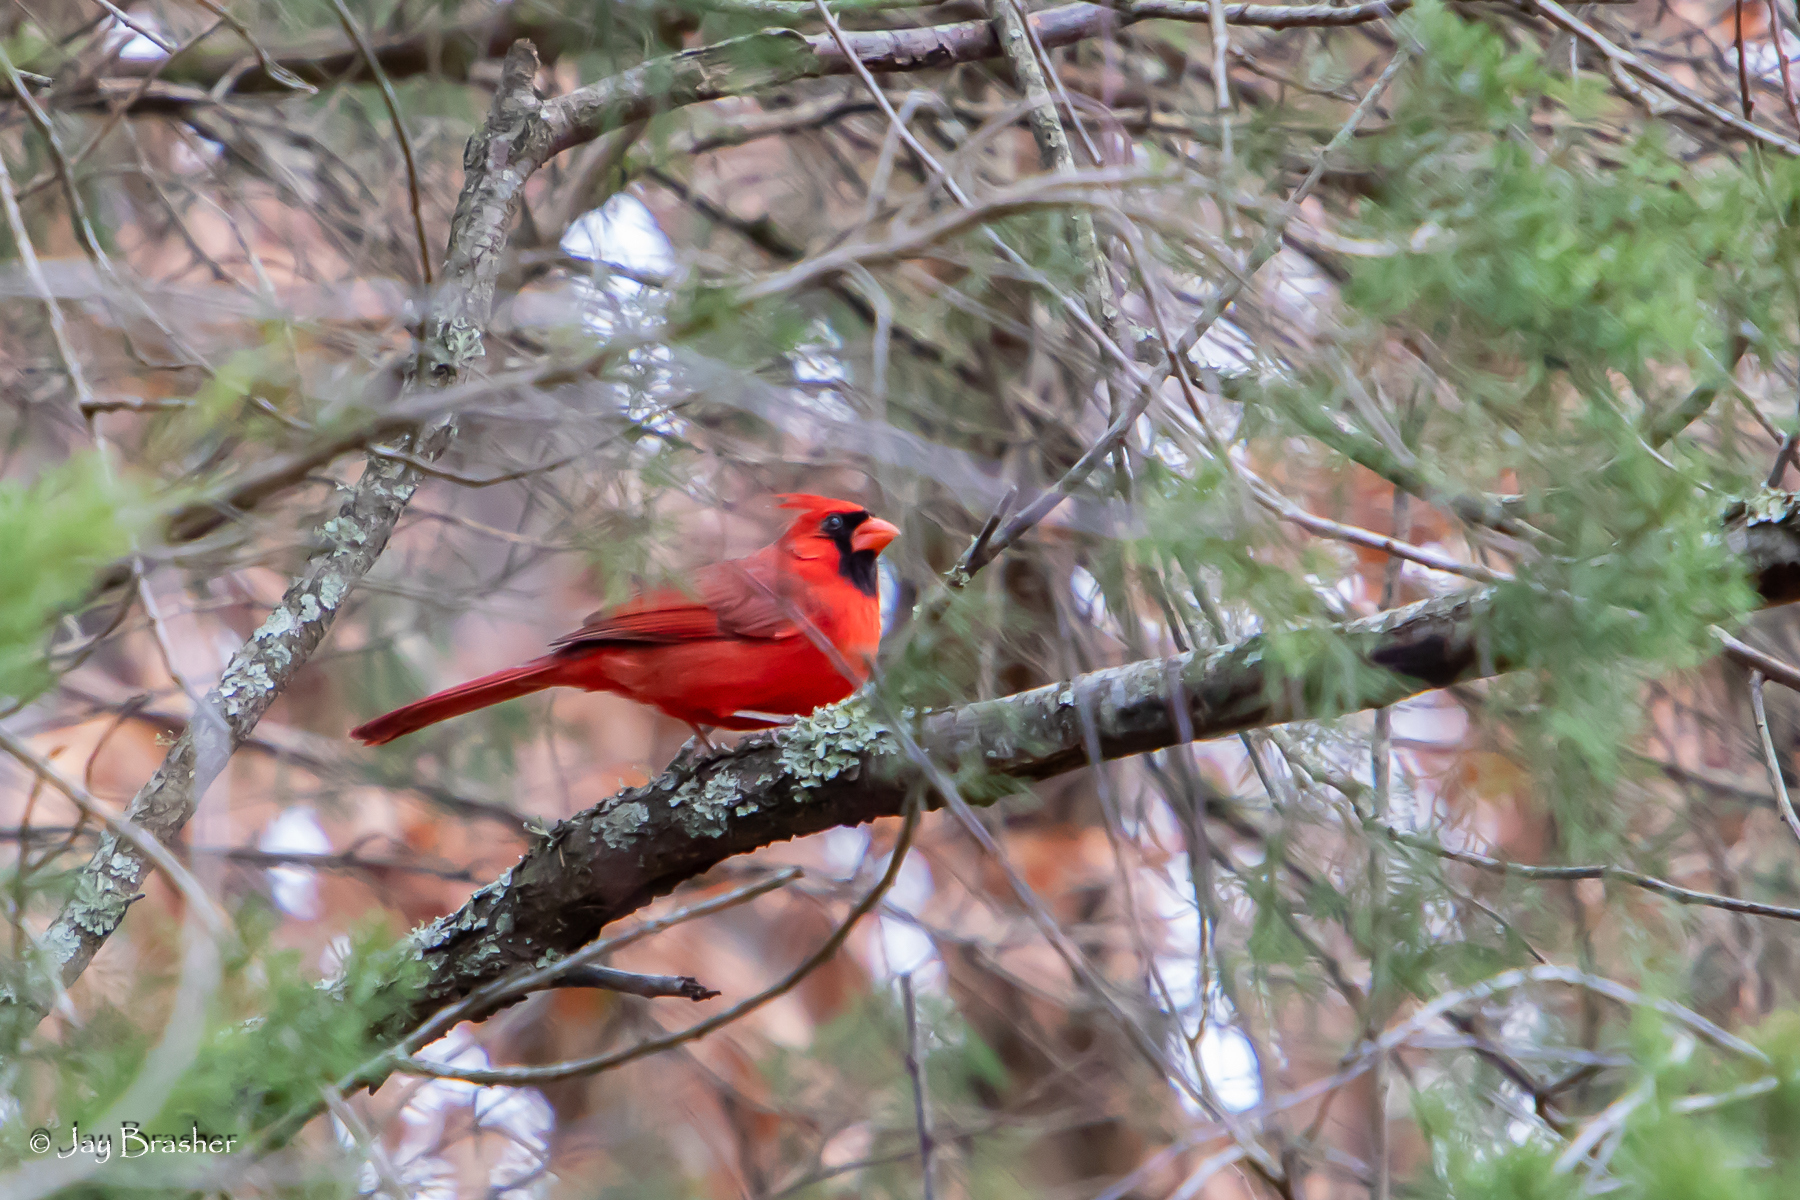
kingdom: Animalia
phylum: Chordata
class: Aves
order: Passeriformes
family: Cardinalidae
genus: Cardinalis
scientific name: Cardinalis cardinalis
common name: Northern cardinal
